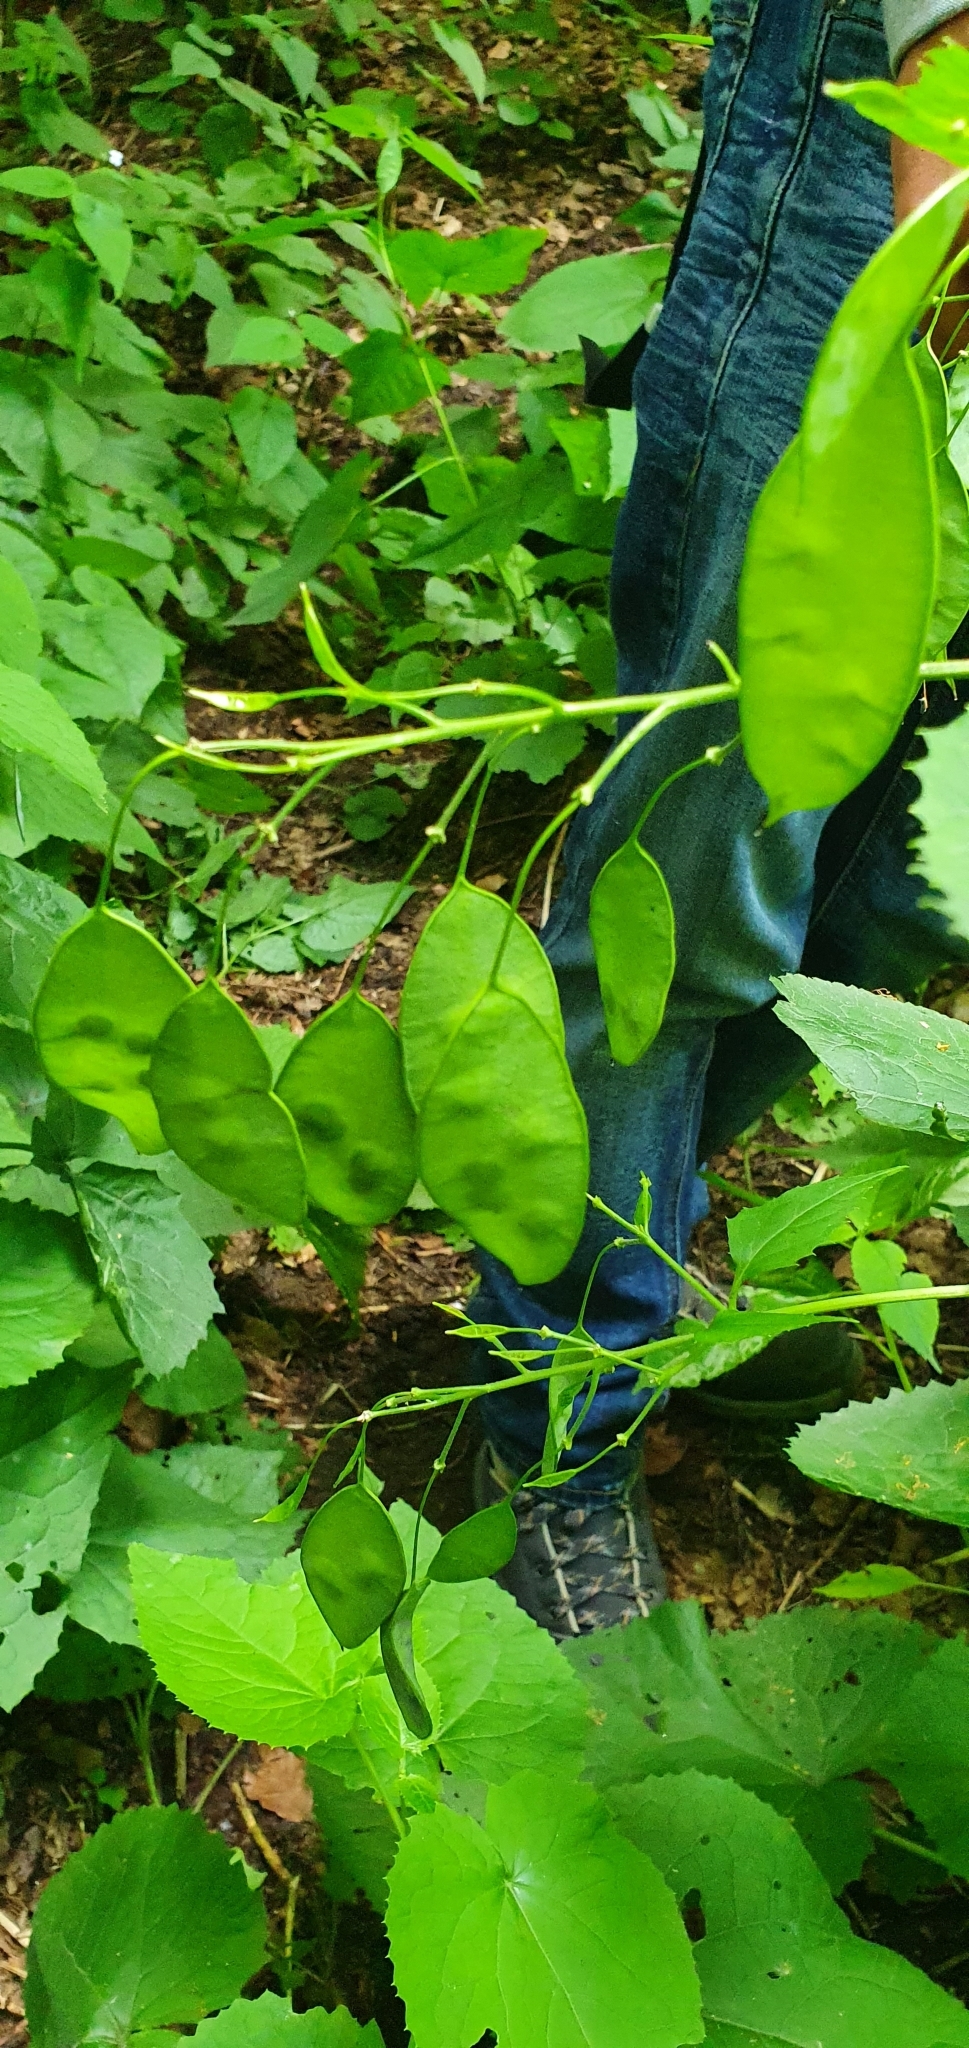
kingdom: Plantae
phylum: Tracheophyta
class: Magnoliopsida
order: Brassicales
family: Brassicaceae
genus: Lunaria
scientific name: Lunaria rediviva
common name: Perennial honesty
